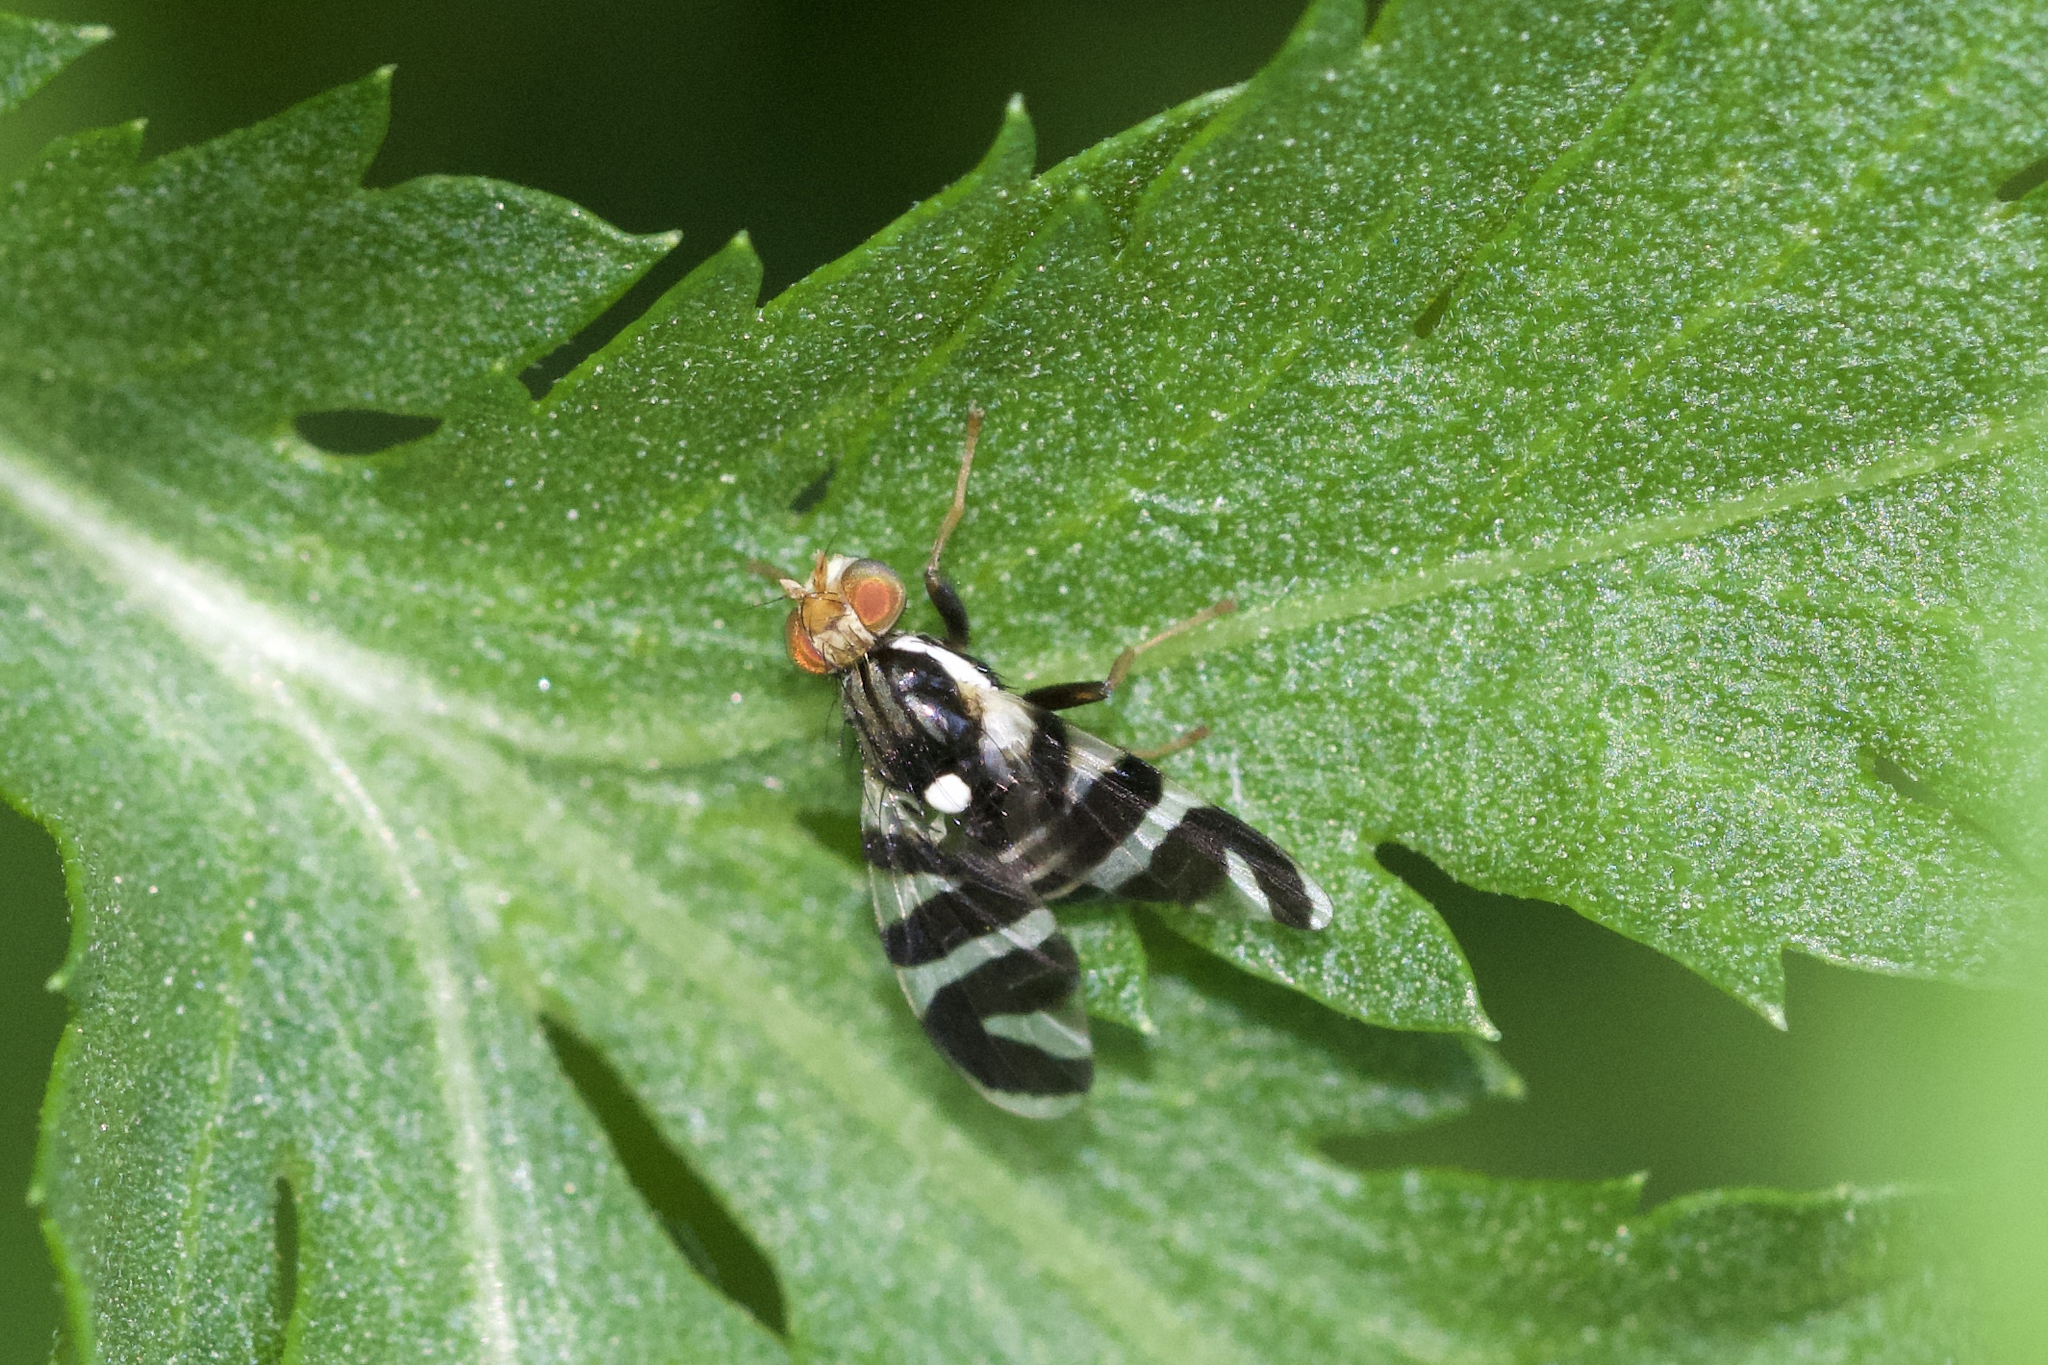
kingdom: Animalia
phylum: Arthropoda
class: Insecta
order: Diptera
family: Tephritidae
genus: Rhagoletis
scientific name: Rhagoletis tabellaria
